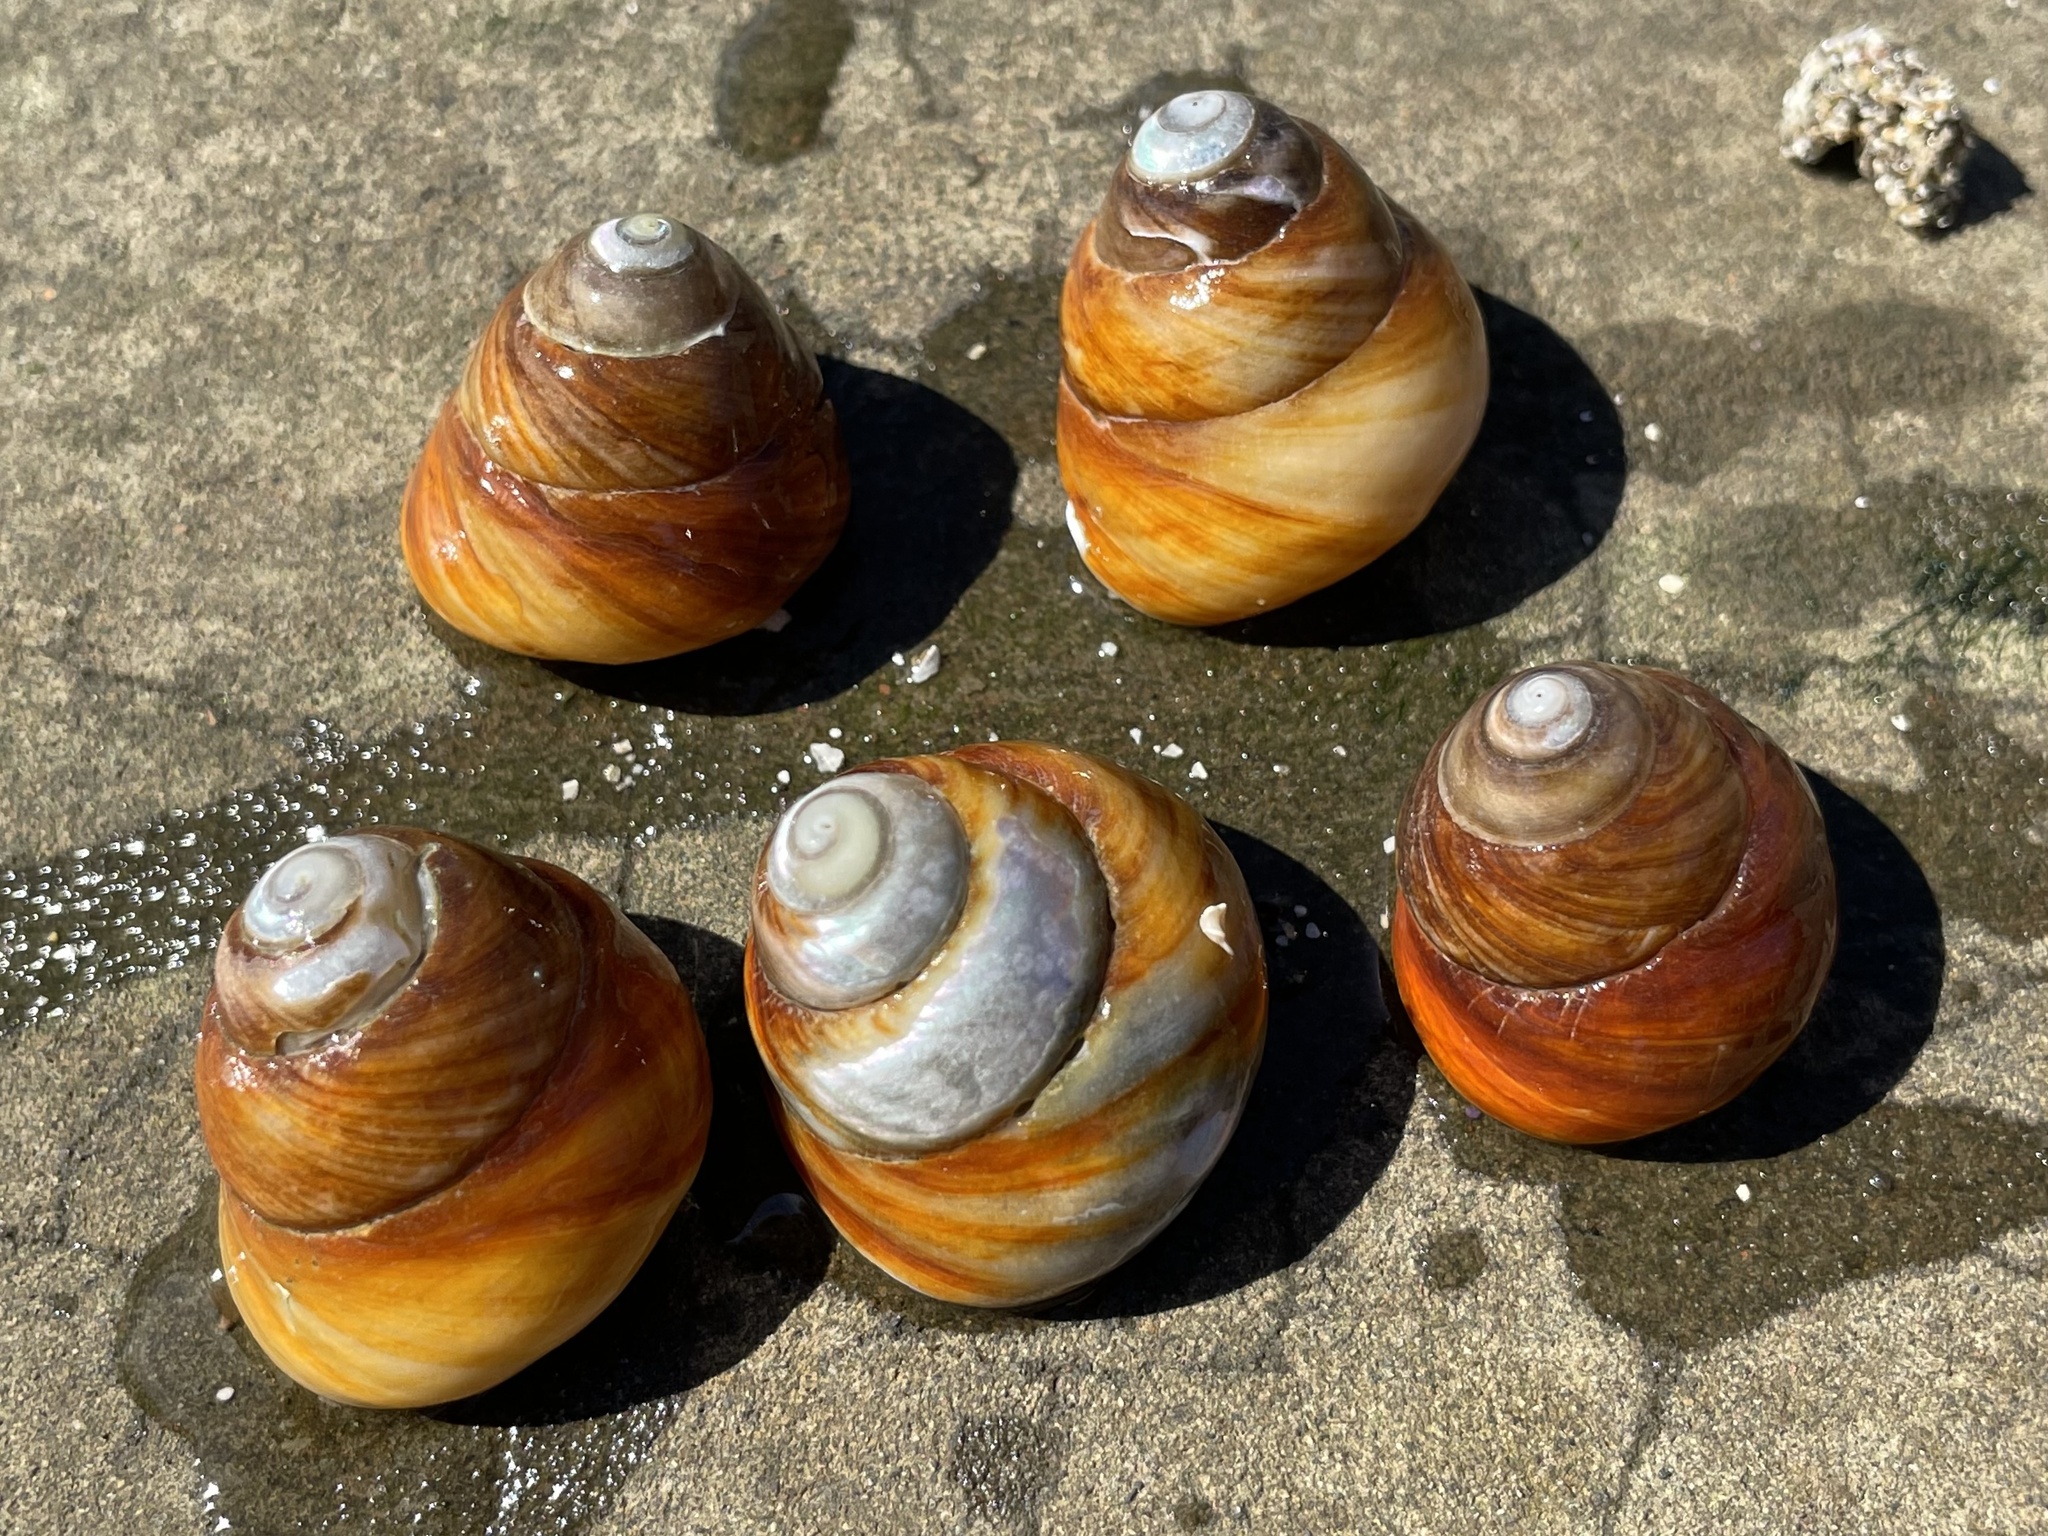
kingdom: Animalia
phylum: Mollusca
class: Gastropoda
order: Trochida
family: Tegulidae
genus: Tegula
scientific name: Tegula brunnea
